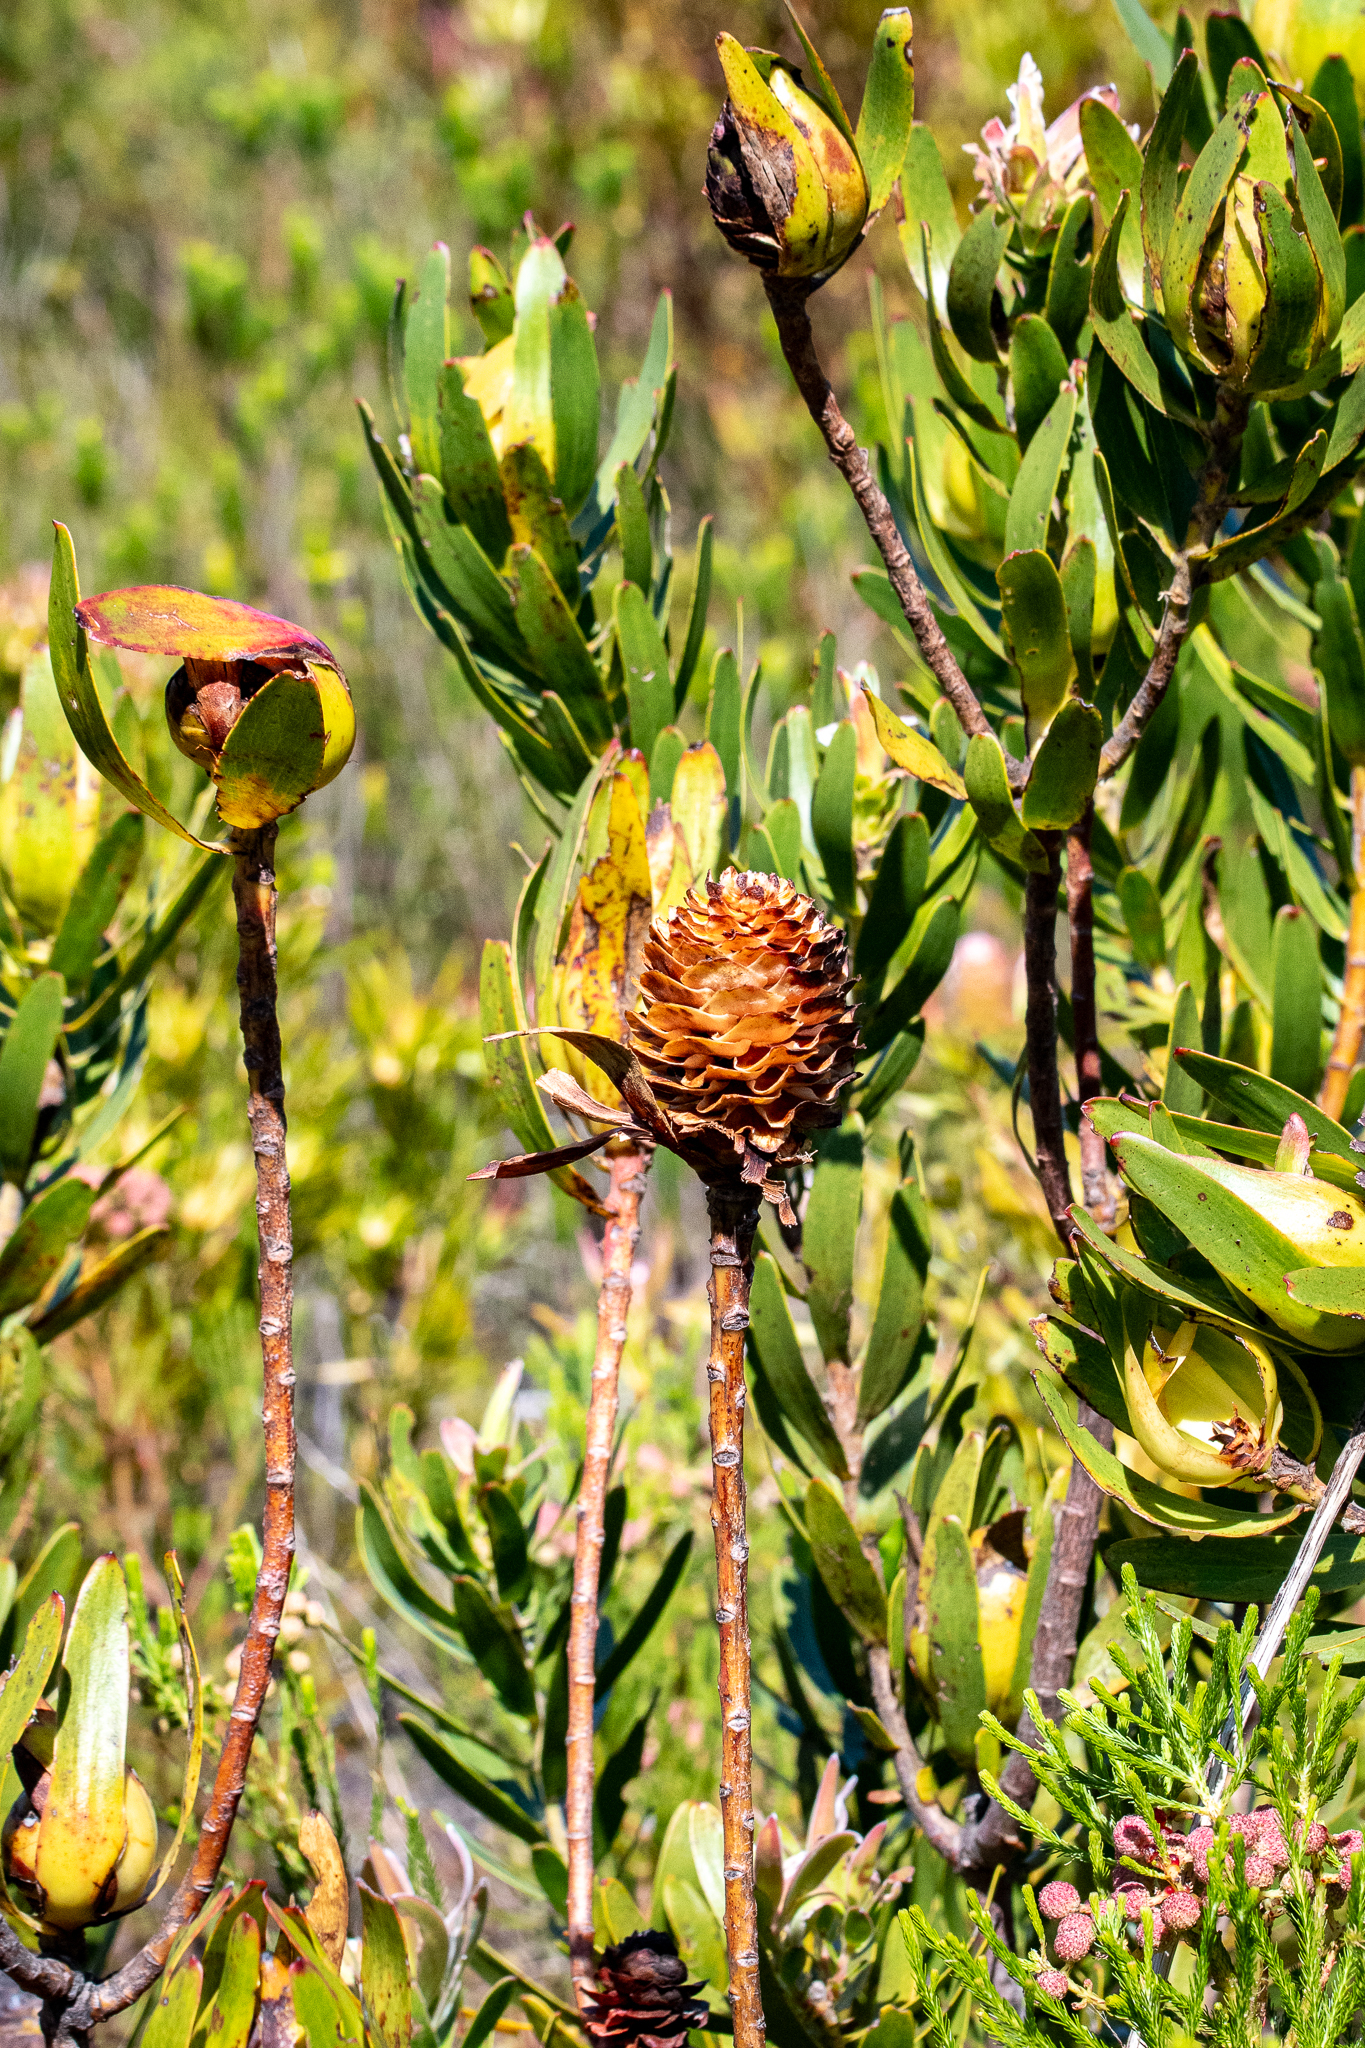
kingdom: Plantae
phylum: Tracheophyta
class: Magnoliopsida
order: Proteales
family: Proteaceae
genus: Leucadendron
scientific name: Leucadendron laureolum
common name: Golden sunshinebush
